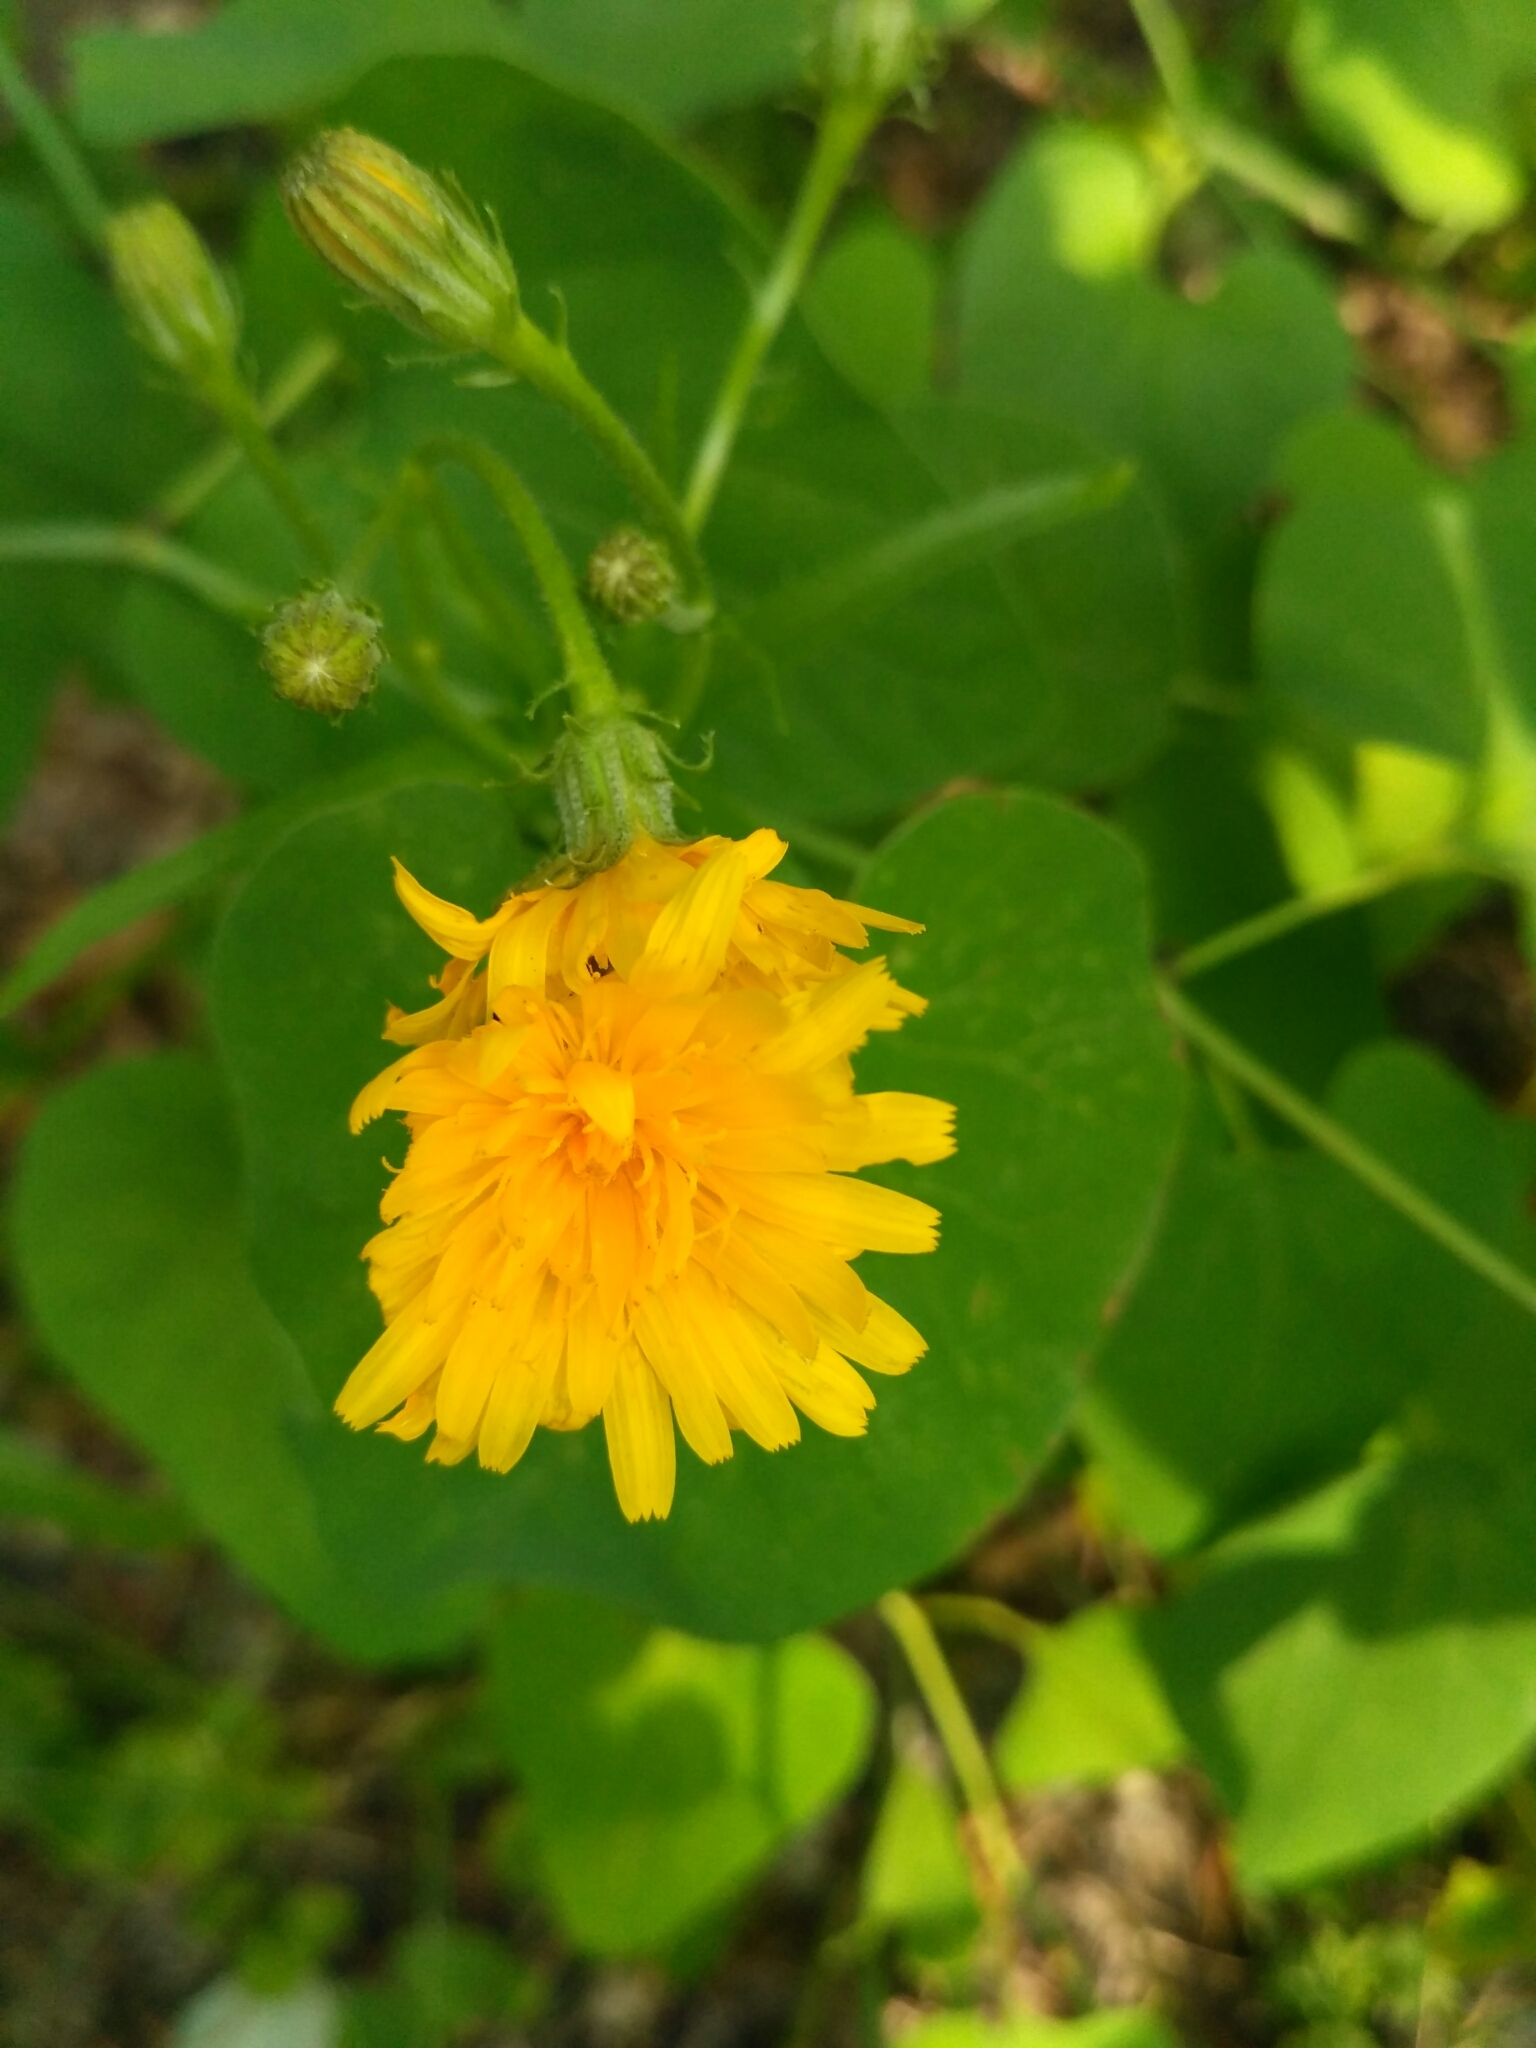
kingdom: Plantae
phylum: Tracheophyta
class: Magnoliopsida
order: Asterales
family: Asteraceae
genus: Picris
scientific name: Picris hieracioides
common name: Hawkweed oxtongue
